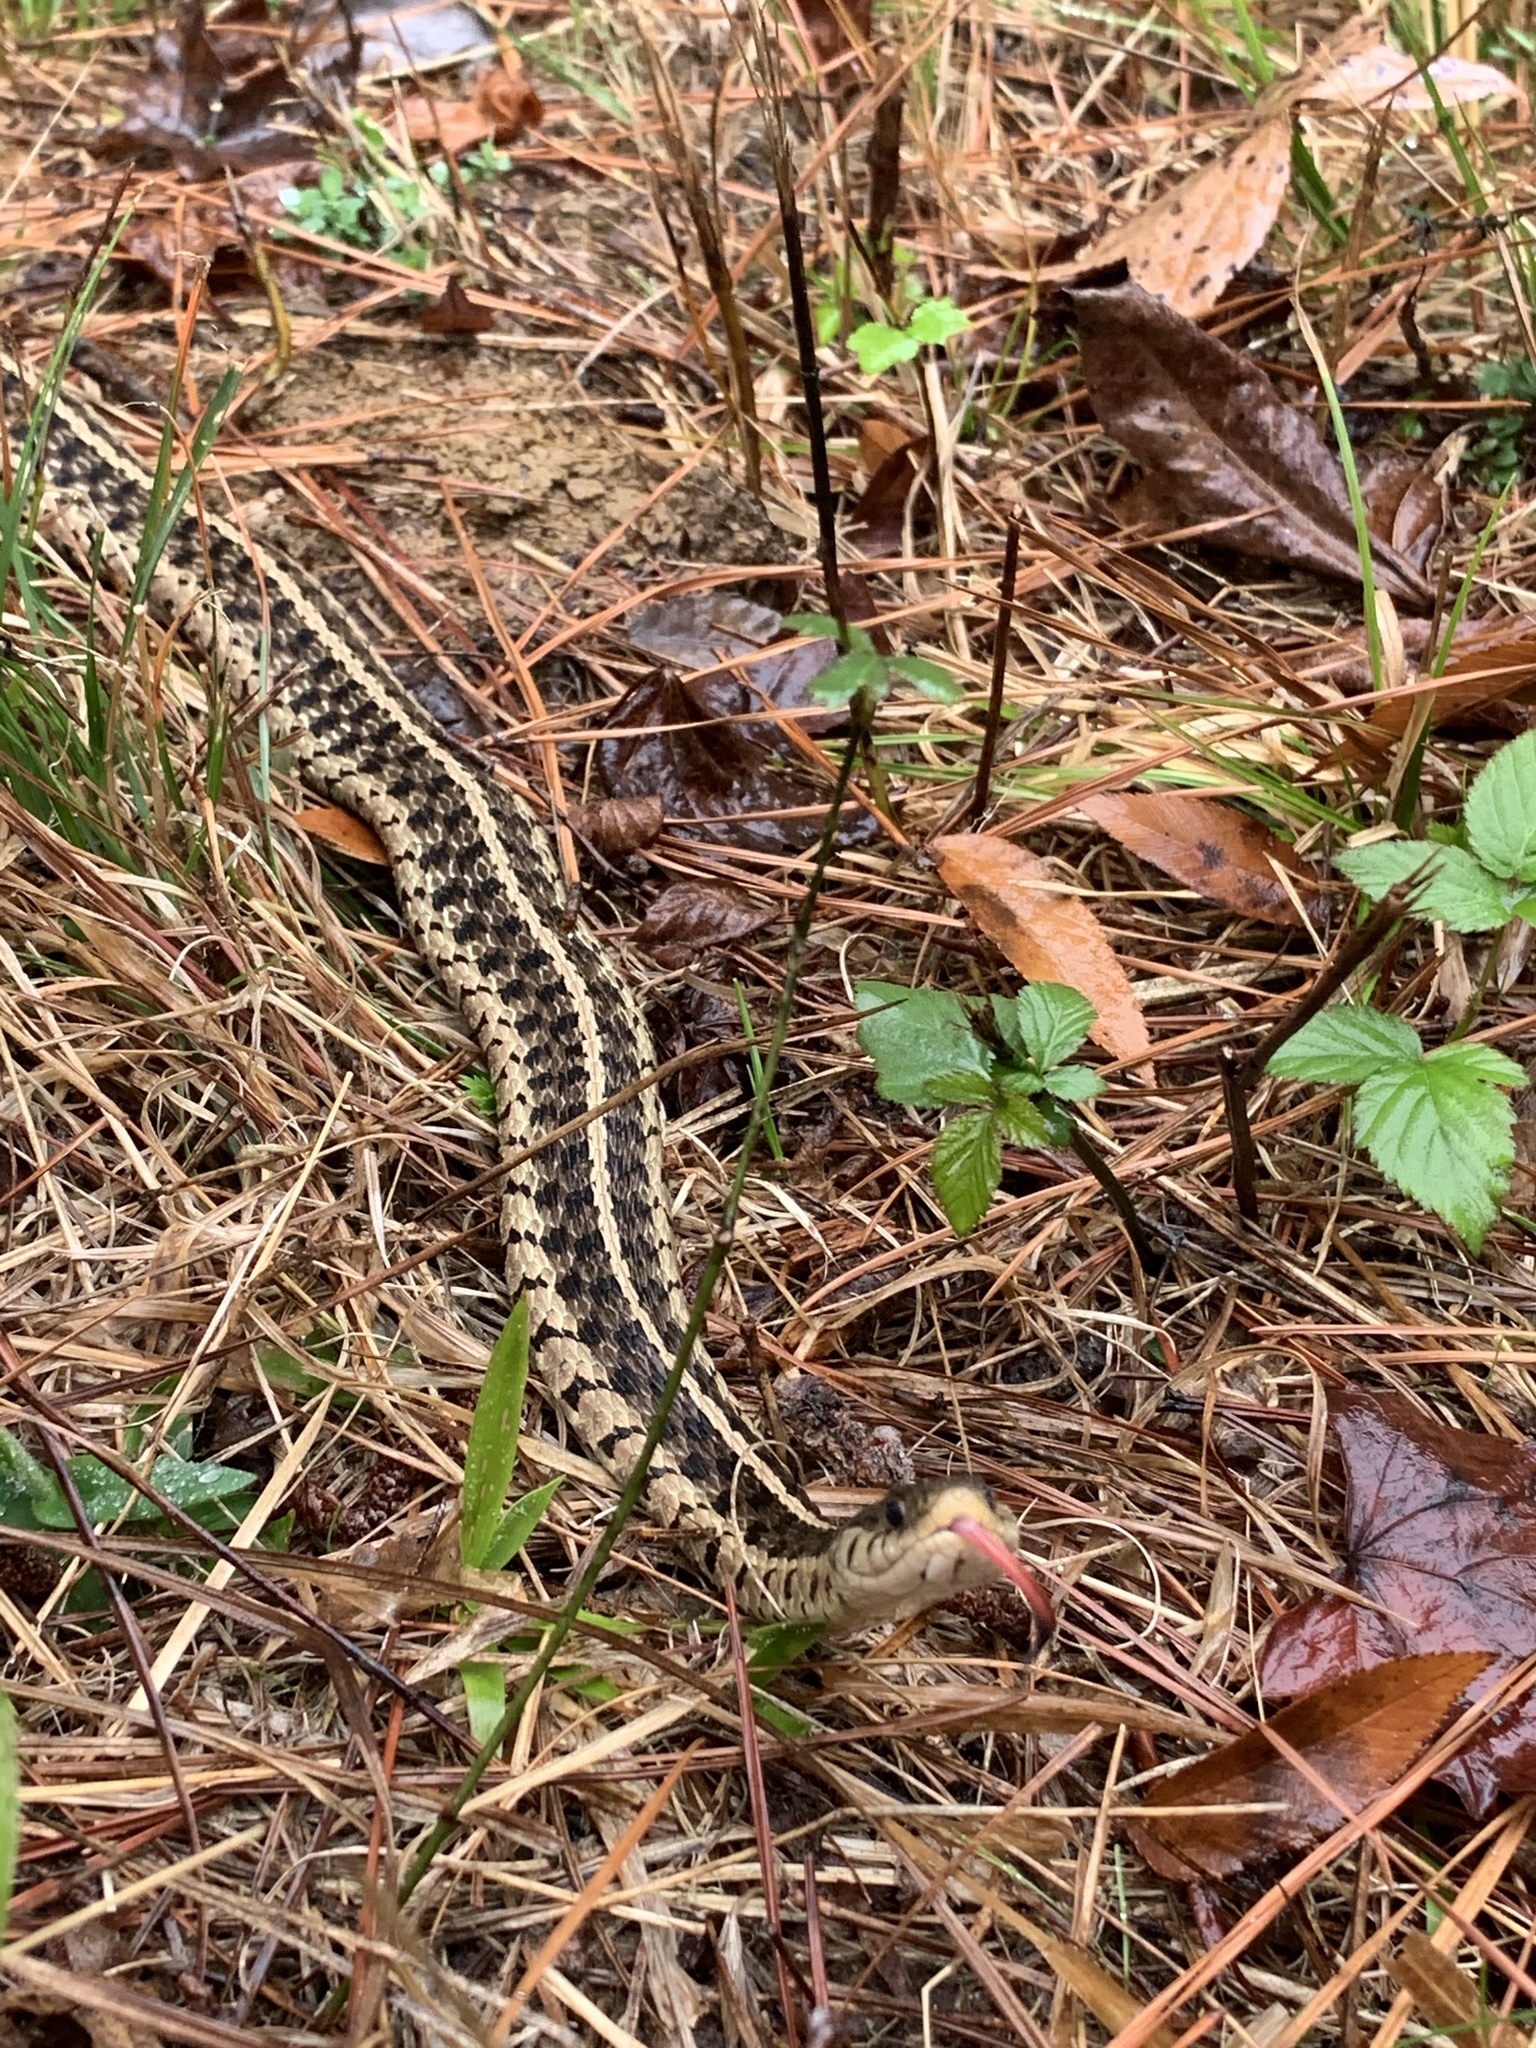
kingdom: Animalia
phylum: Chordata
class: Squamata
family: Colubridae
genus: Thamnophis
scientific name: Thamnophis sirtalis
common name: Common garter snake
